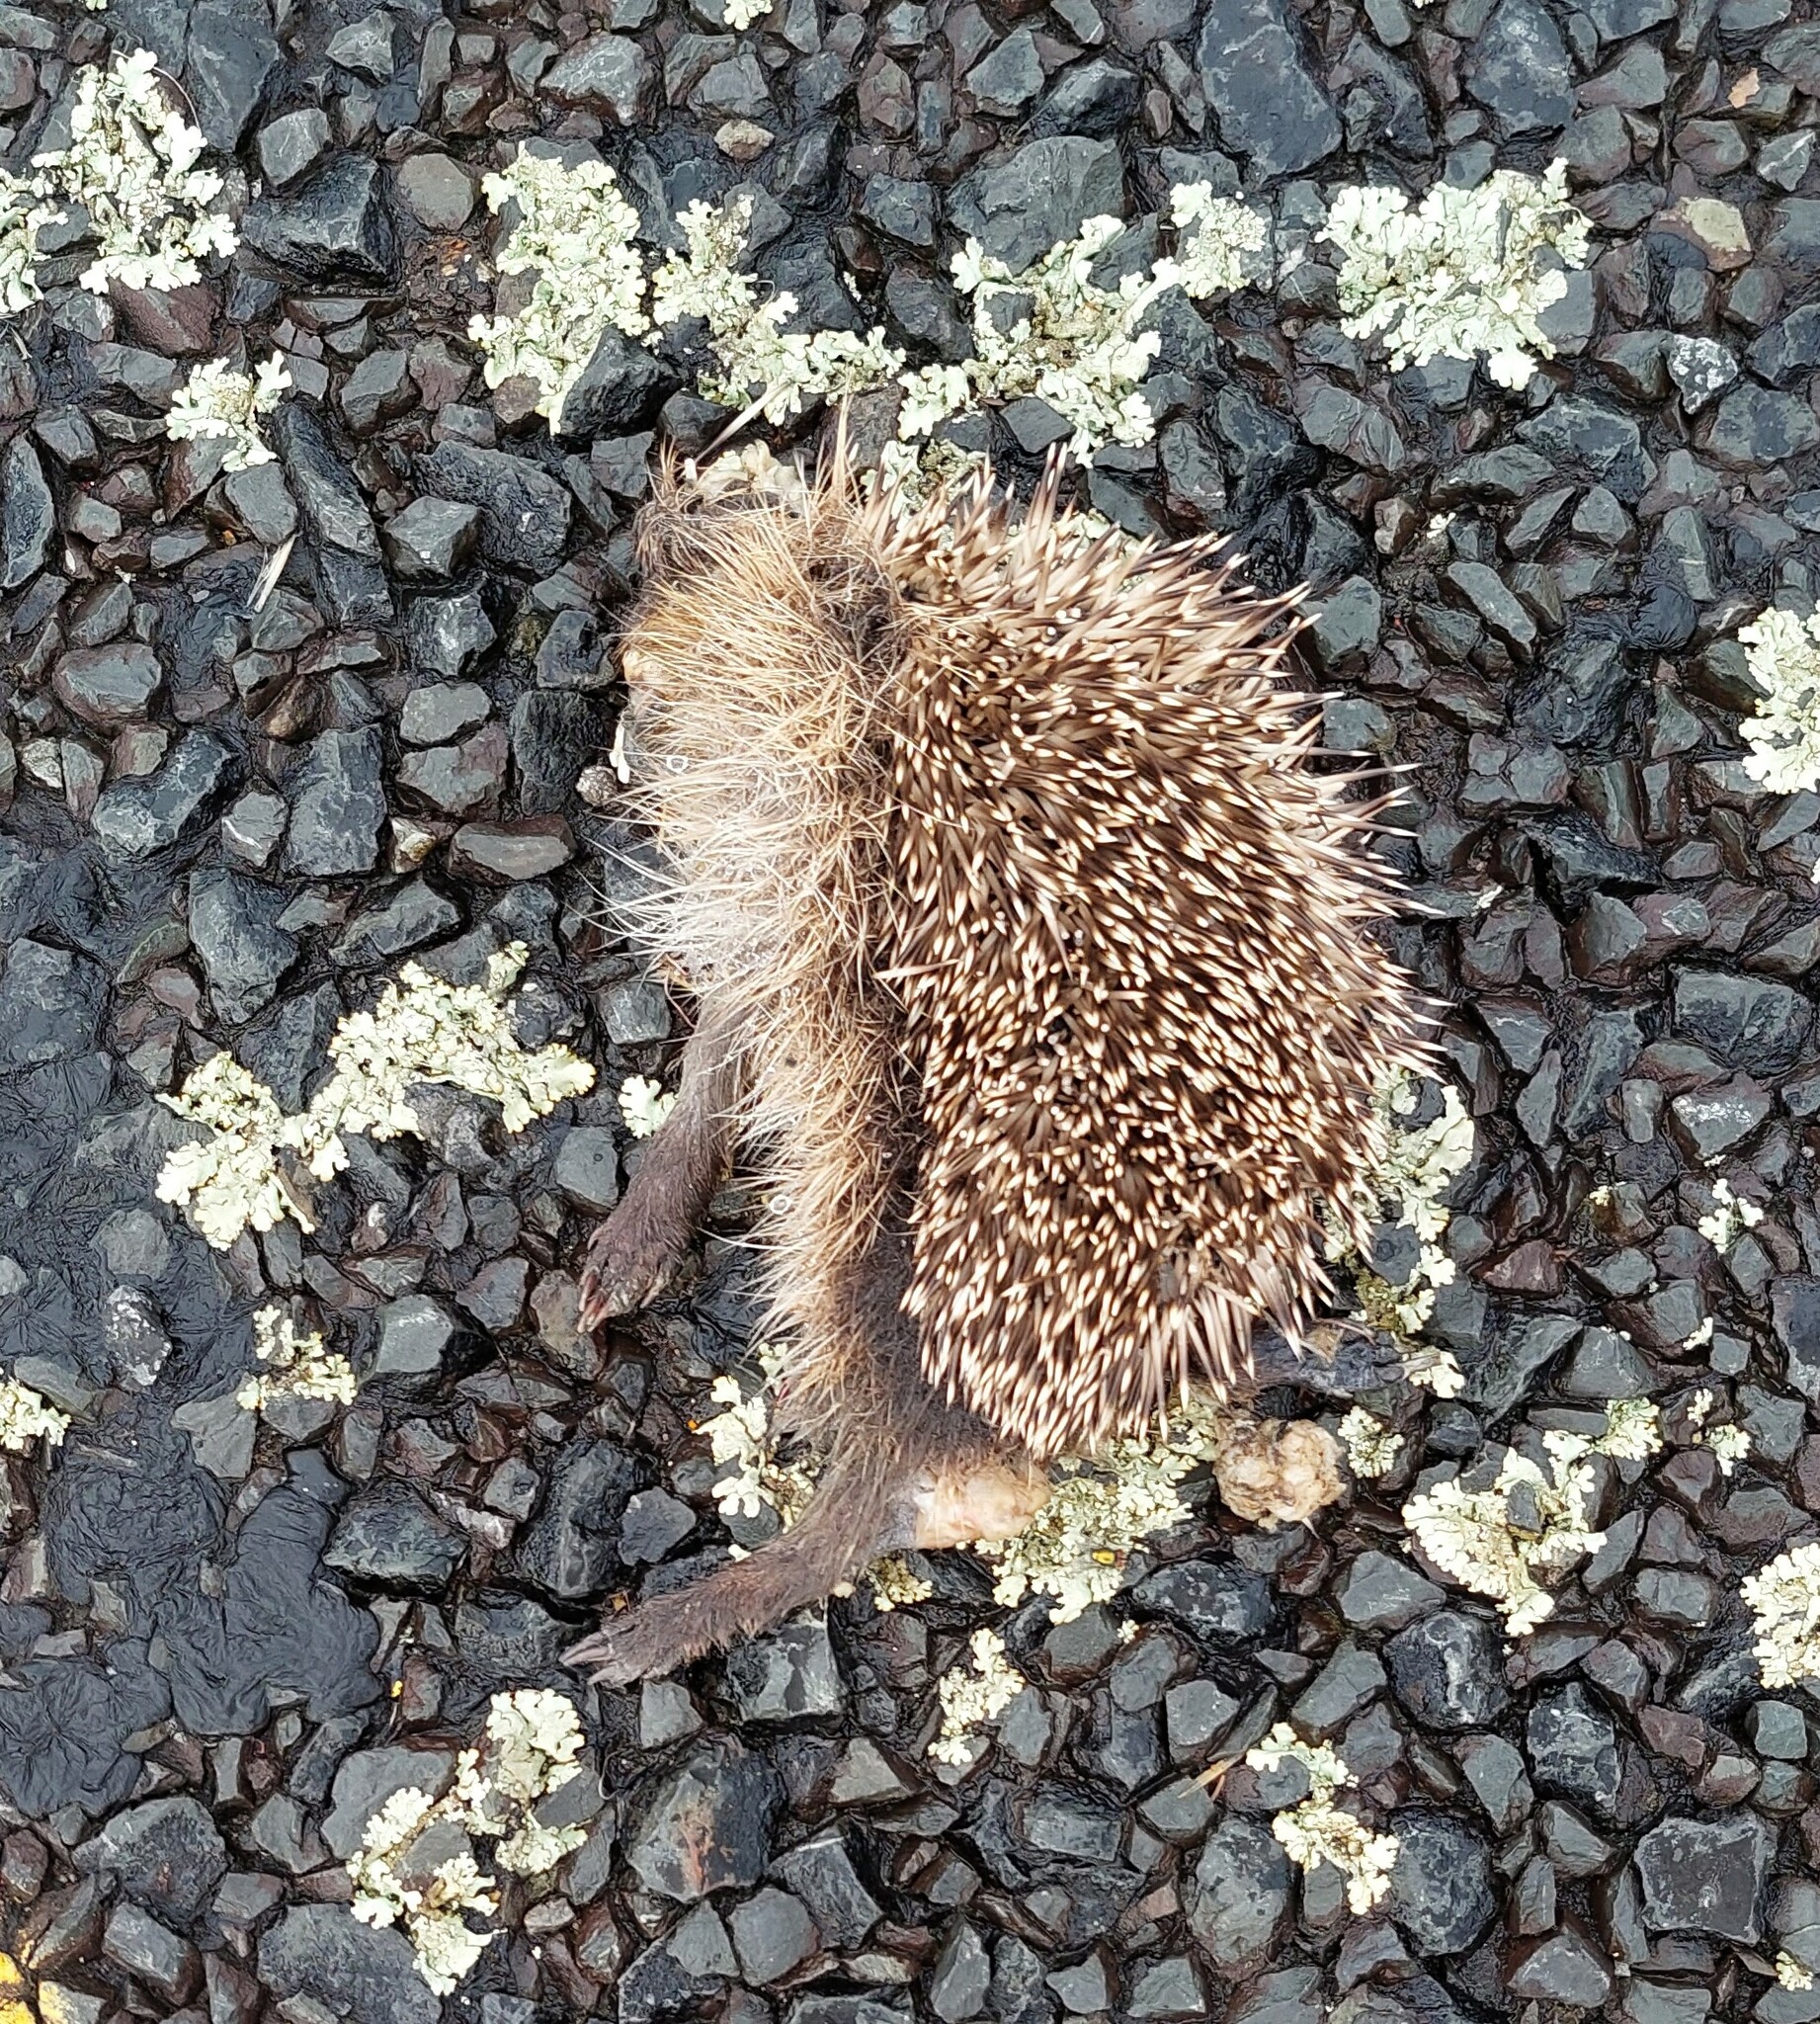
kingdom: Animalia
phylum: Chordata
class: Mammalia
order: Erinaceomorpha
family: Erinaceidae
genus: Erinaceus
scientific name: Erinaceus europaeus
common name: West european hedgehog
